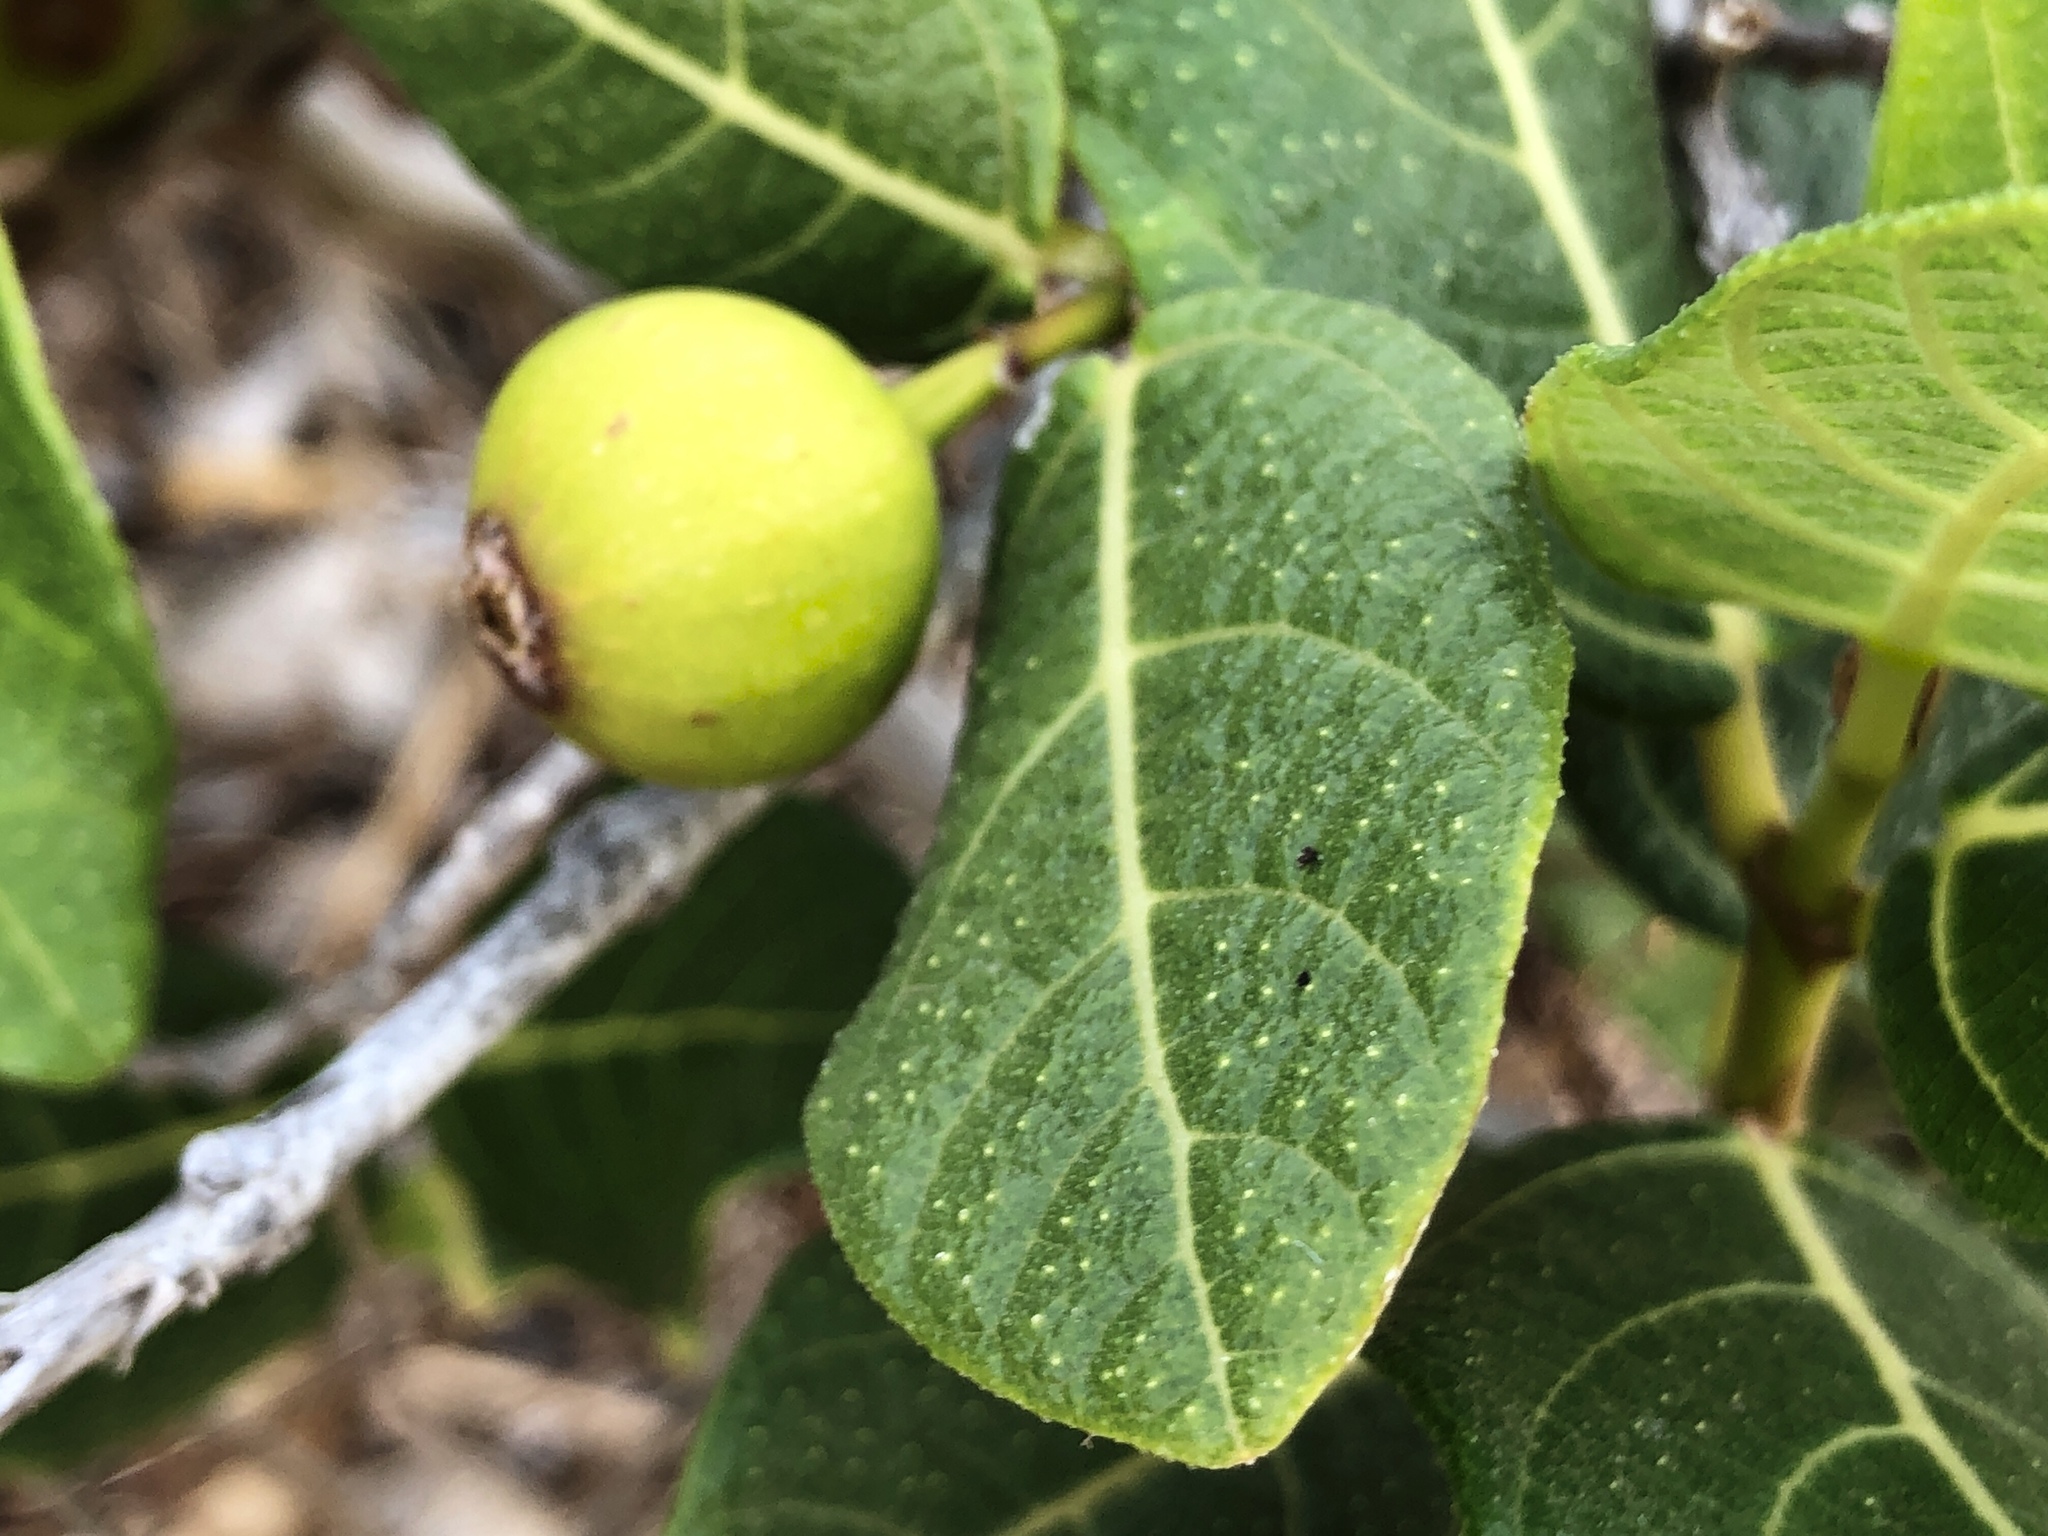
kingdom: Plantae
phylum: Tracheophyta
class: Magnoliopsida
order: Rosales
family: Moraceae
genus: Ficus
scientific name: Ficus opposita
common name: Figwood
